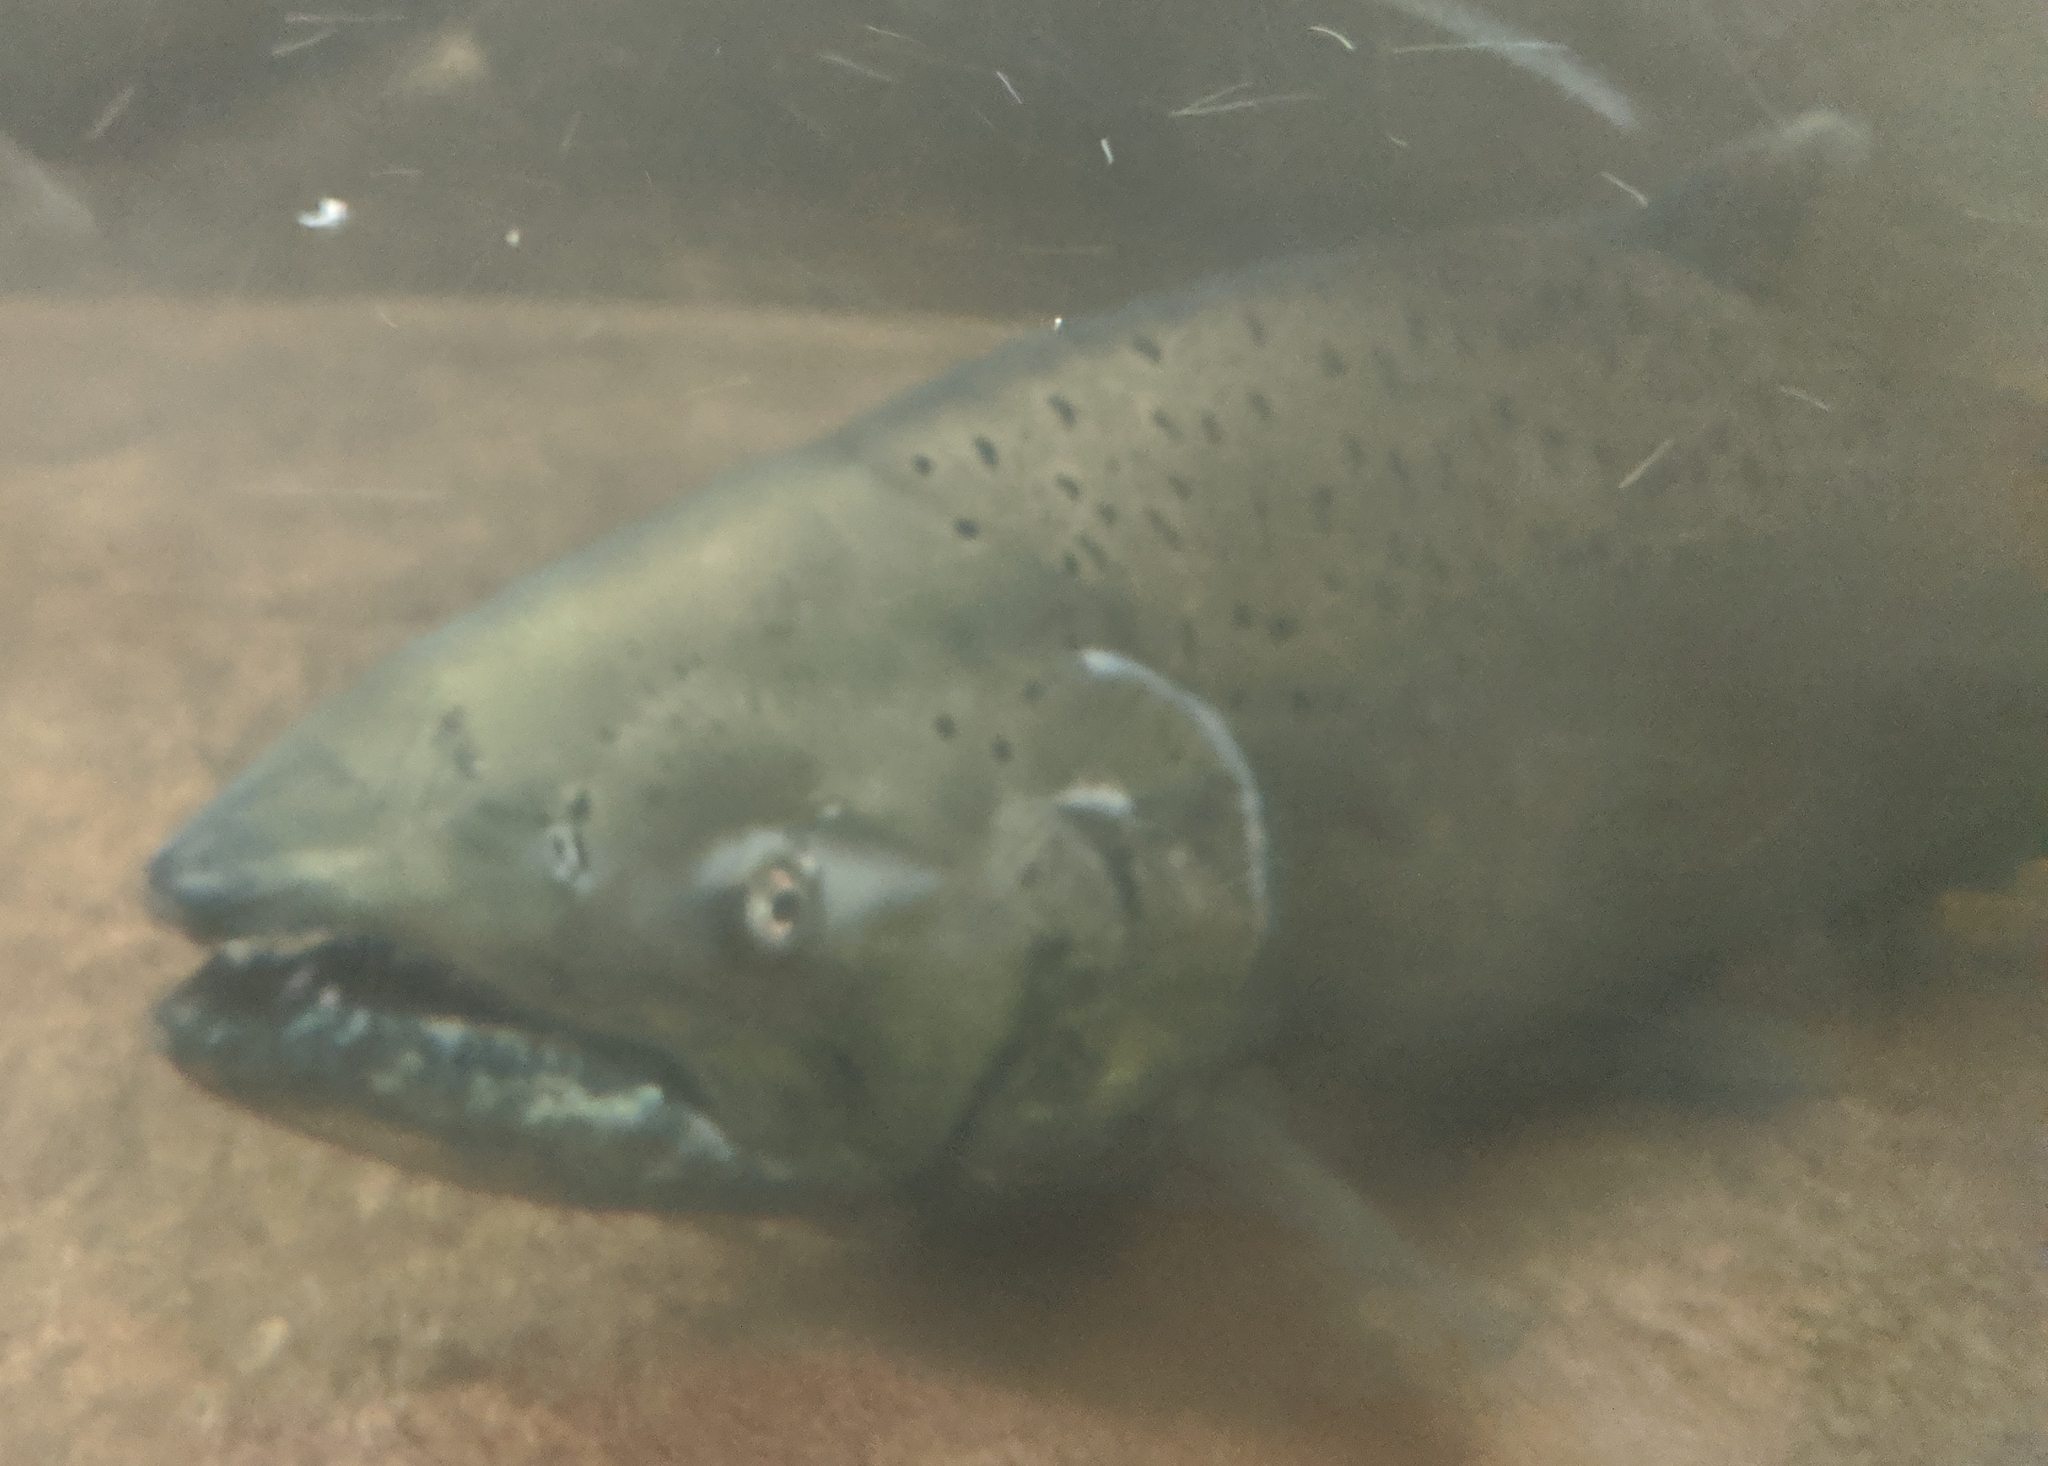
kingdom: Animalia
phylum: Chordata
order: Salmoniformes
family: Salmonidae
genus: Oncorhynchus
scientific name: Oncorhynchus tshawytscha
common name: Chinook salmon
